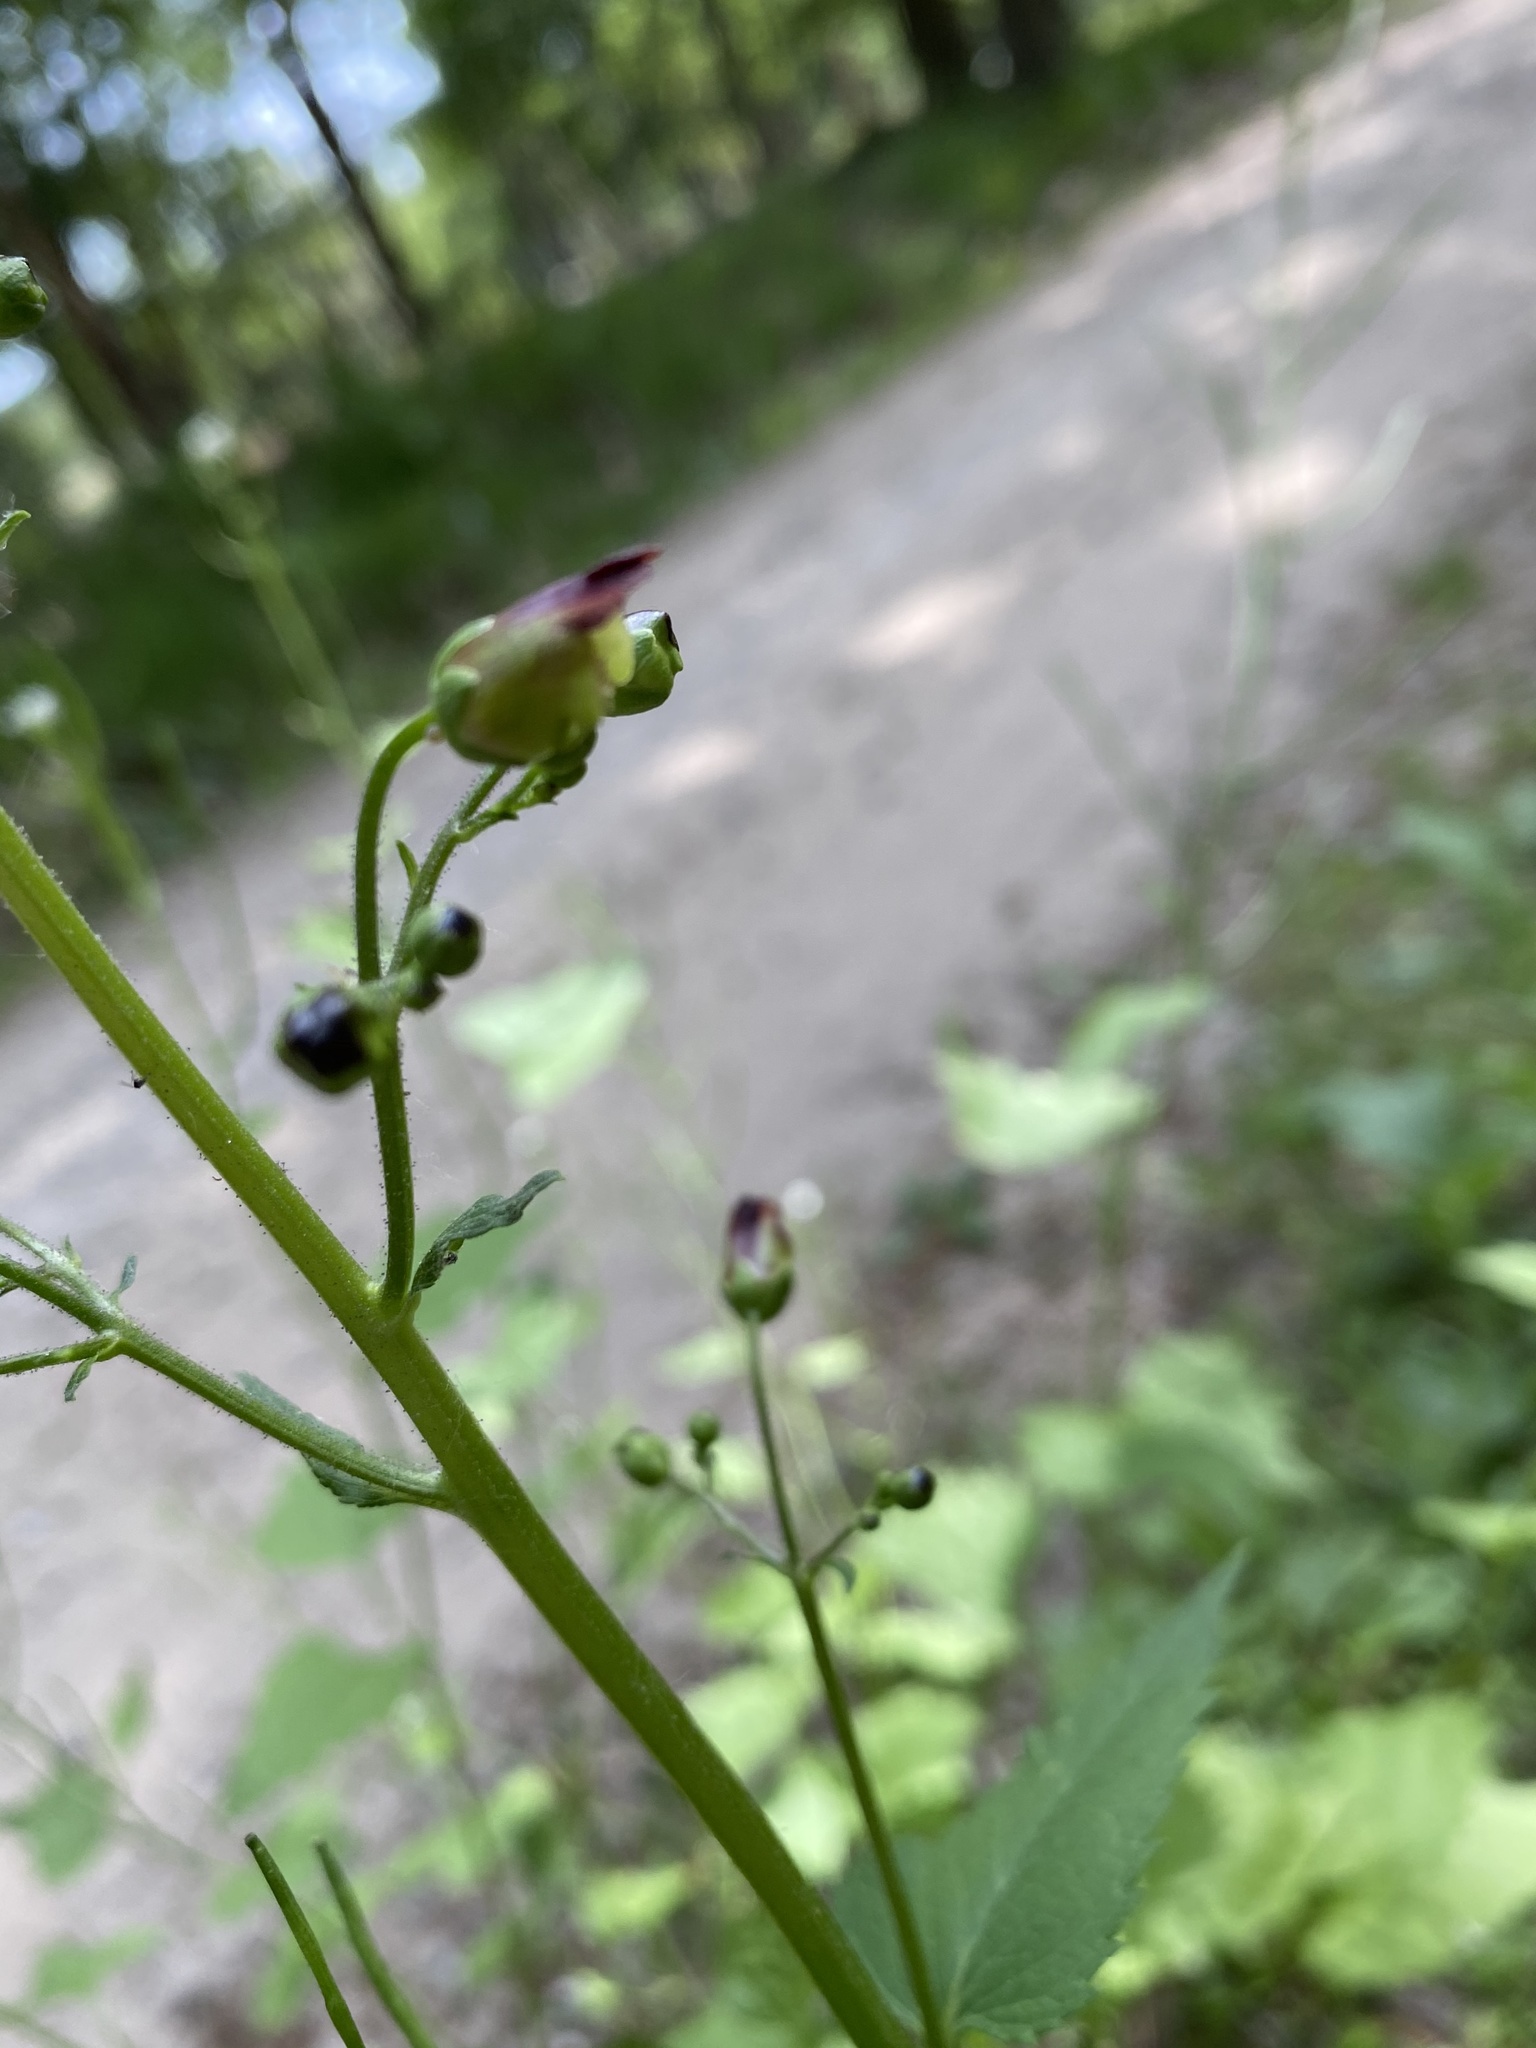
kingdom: Plantae
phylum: Tracheophyta
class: Magnoliopsida
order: Lamiales
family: Scrophulariaceae
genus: Scrophularia
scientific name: Scrophularia nodosa
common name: Common figwort
